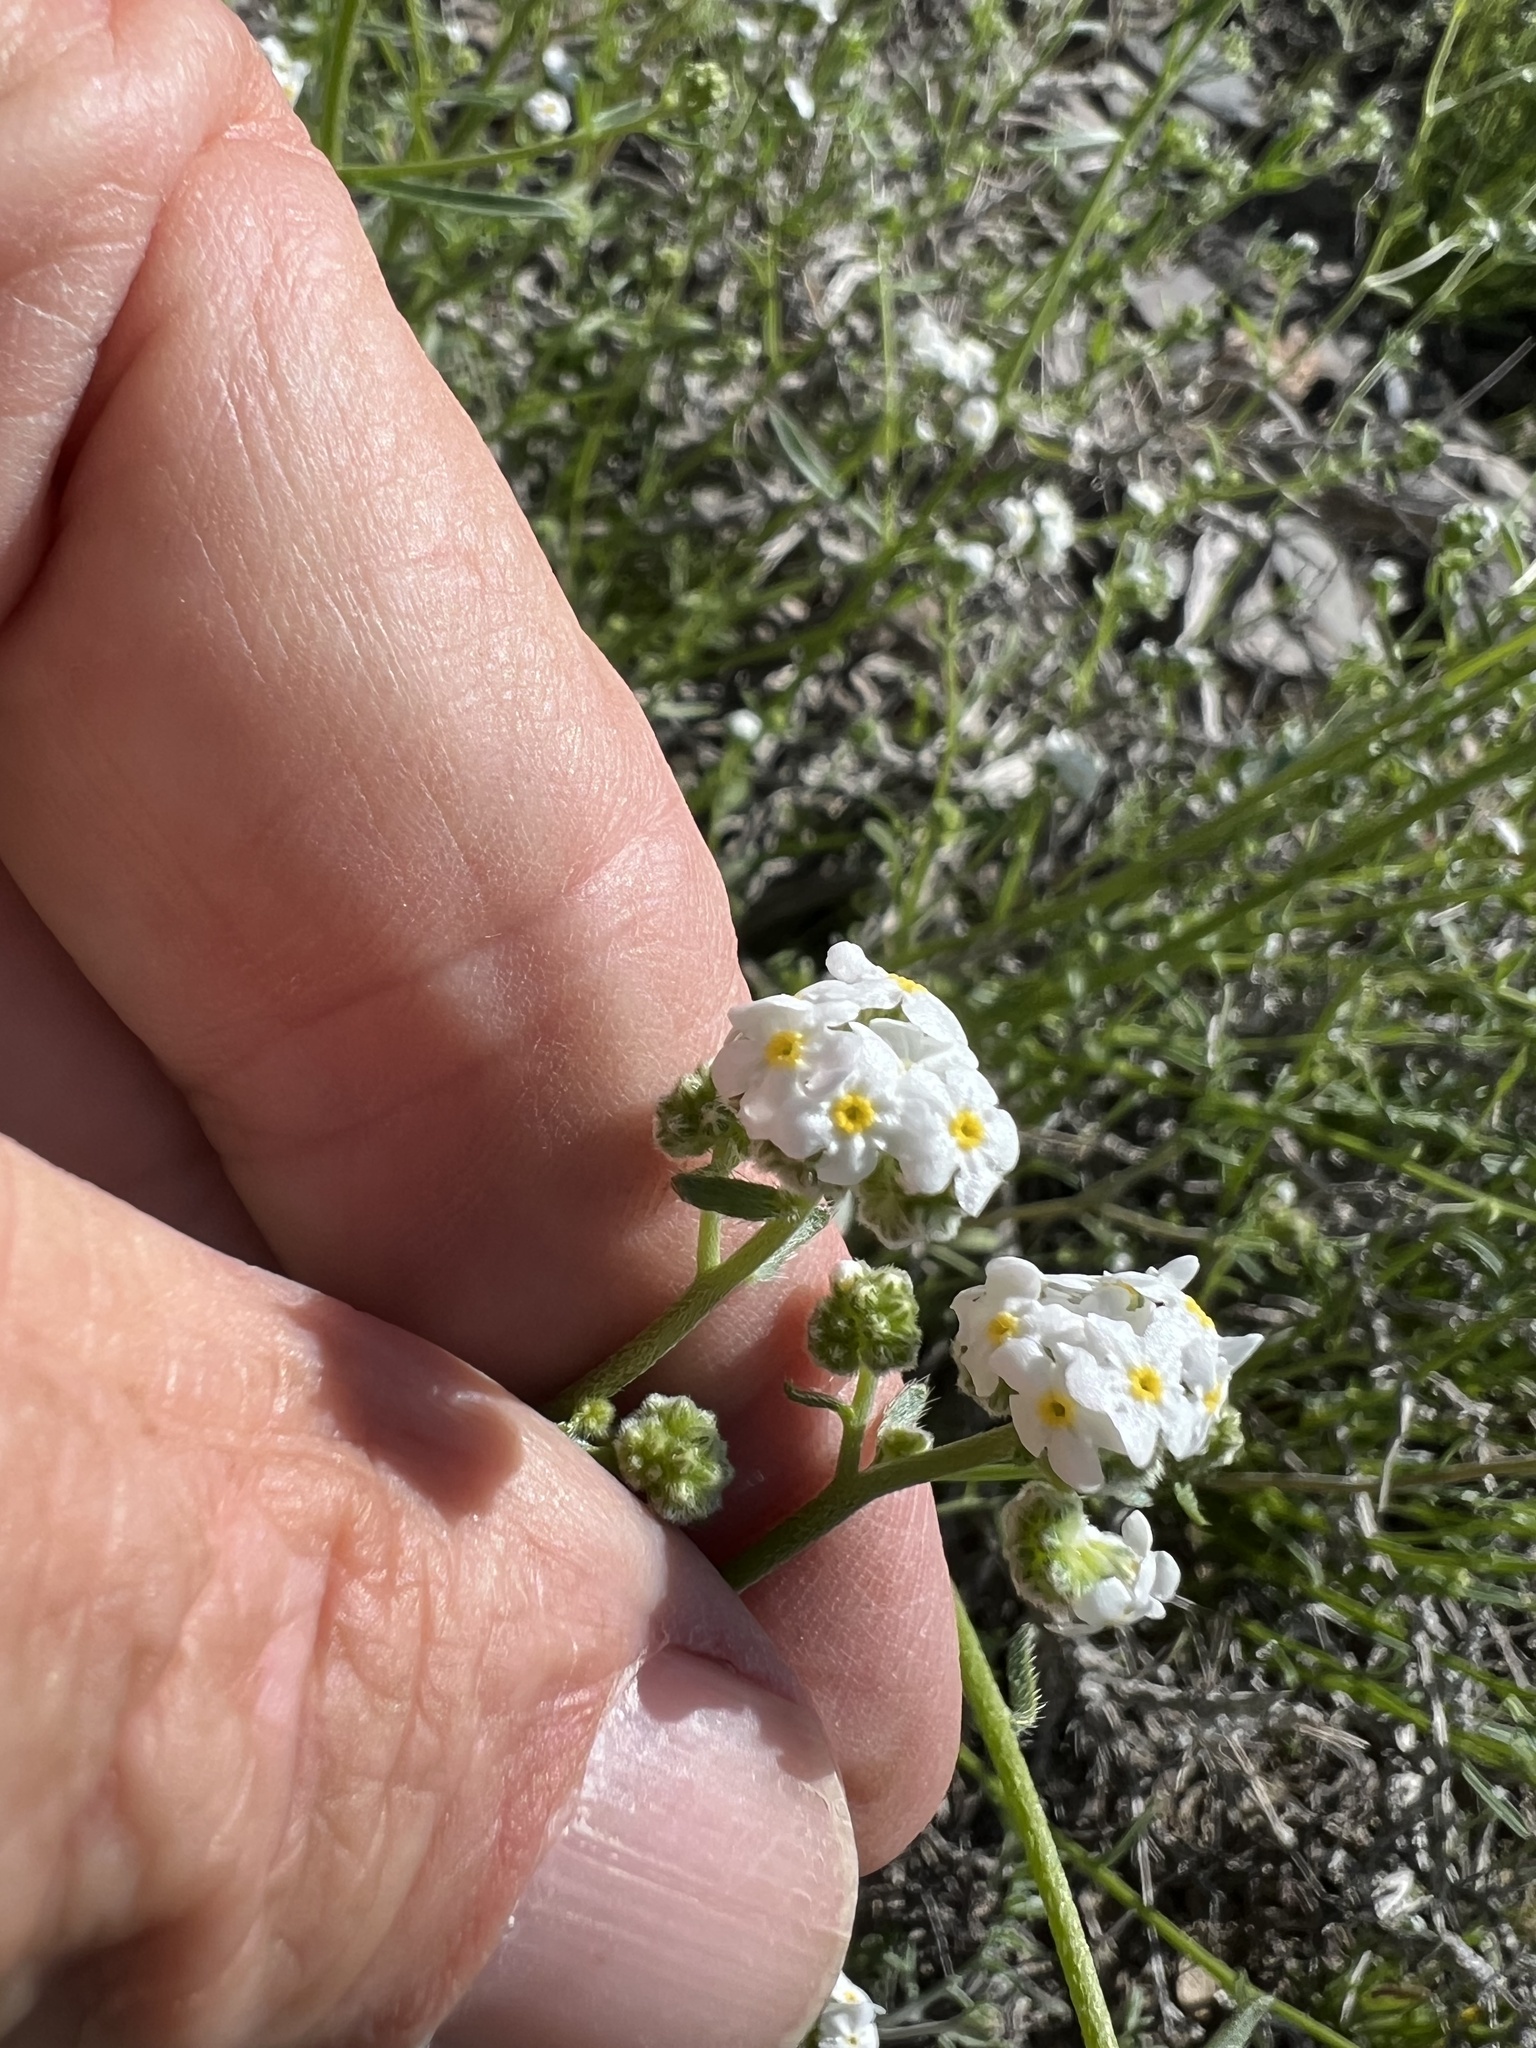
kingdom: Plantae
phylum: Tracheophyta
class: Magnoliopsida
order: Boraginales
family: Boraginaceae
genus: Cryptantha
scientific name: Cryptantha utahensis
